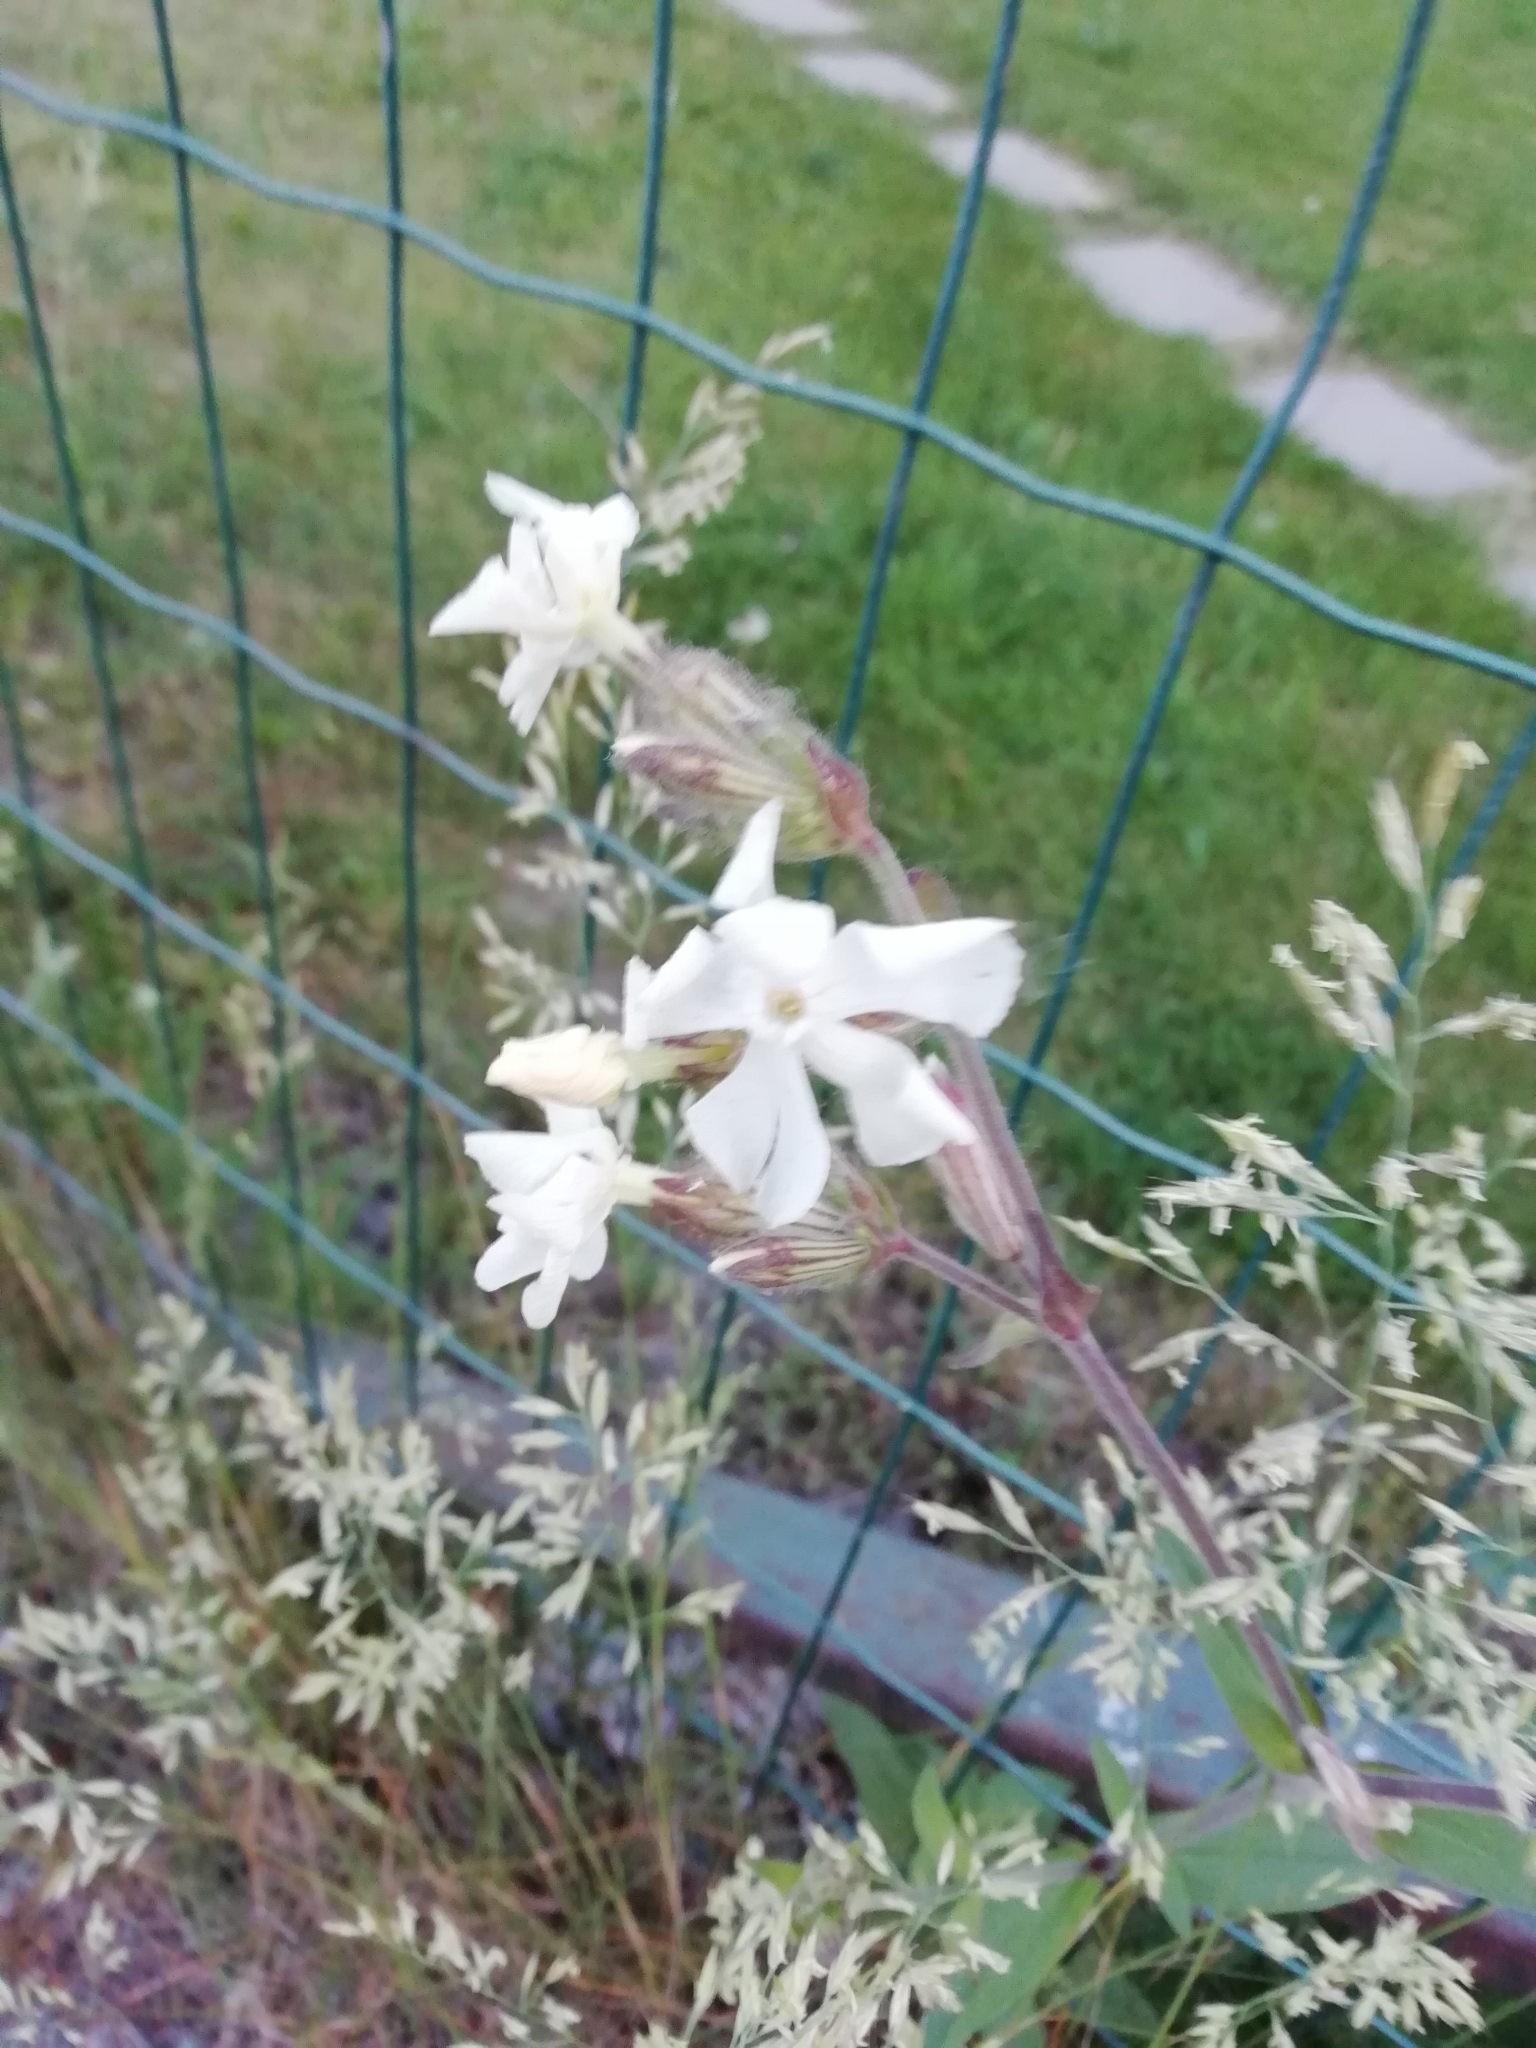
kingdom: Plantae
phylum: Tracheophyta
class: Magnoliopsida
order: Caryophyllales
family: Caryophyllaceae
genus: Silene
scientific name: Silene latifolia
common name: White campion
